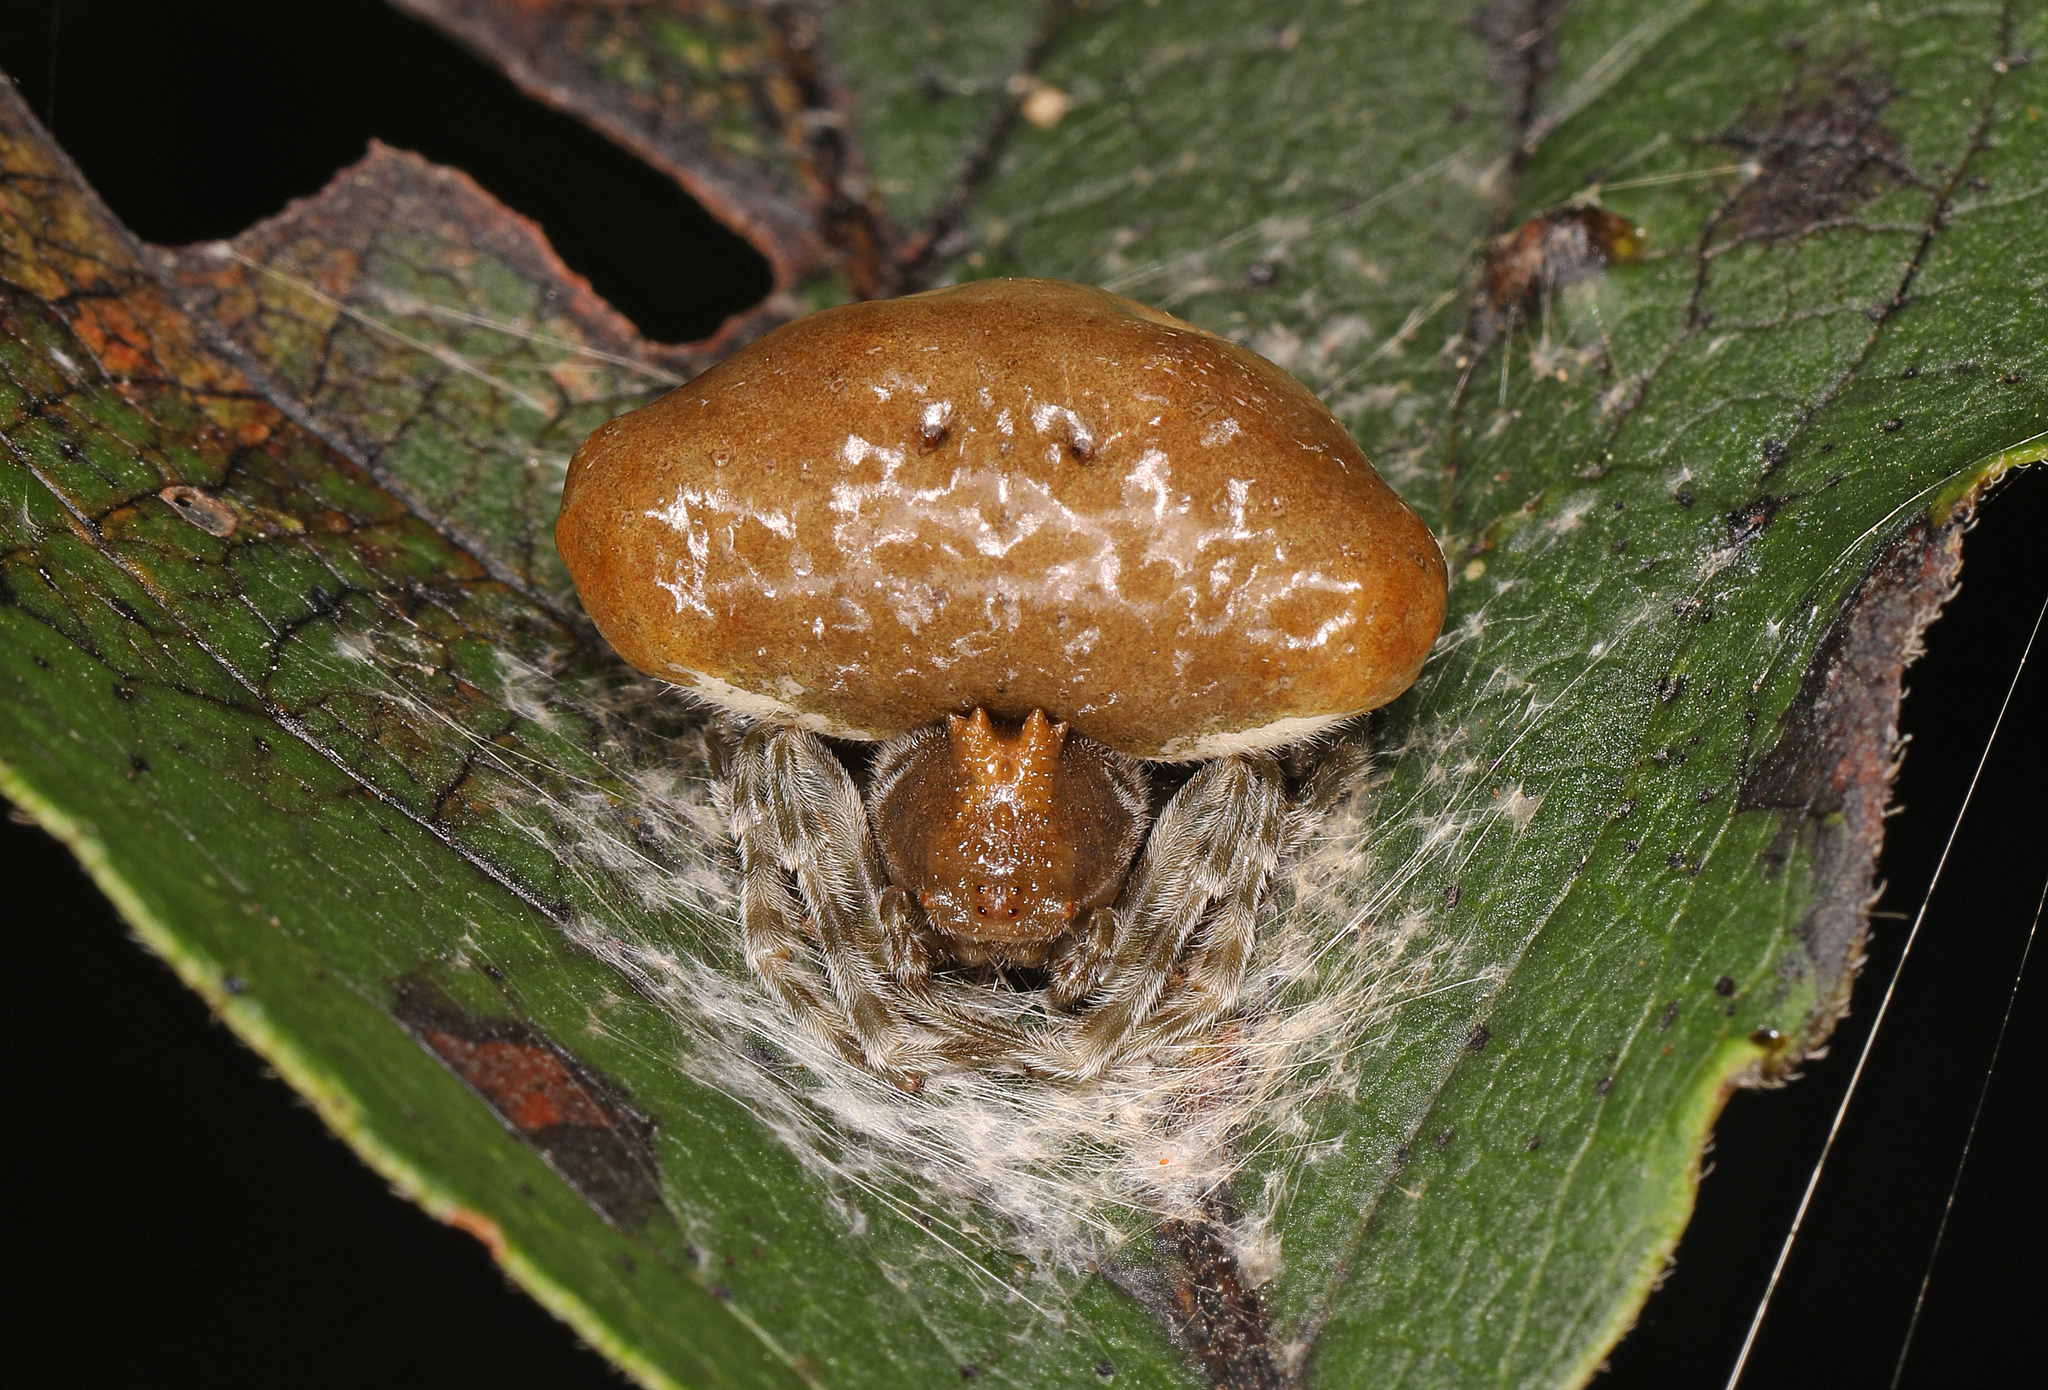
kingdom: Animalia
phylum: Arthropoda
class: Arachnida
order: Araneae
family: Araneidae
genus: Mastophora
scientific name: Mastophora phrynosoma
